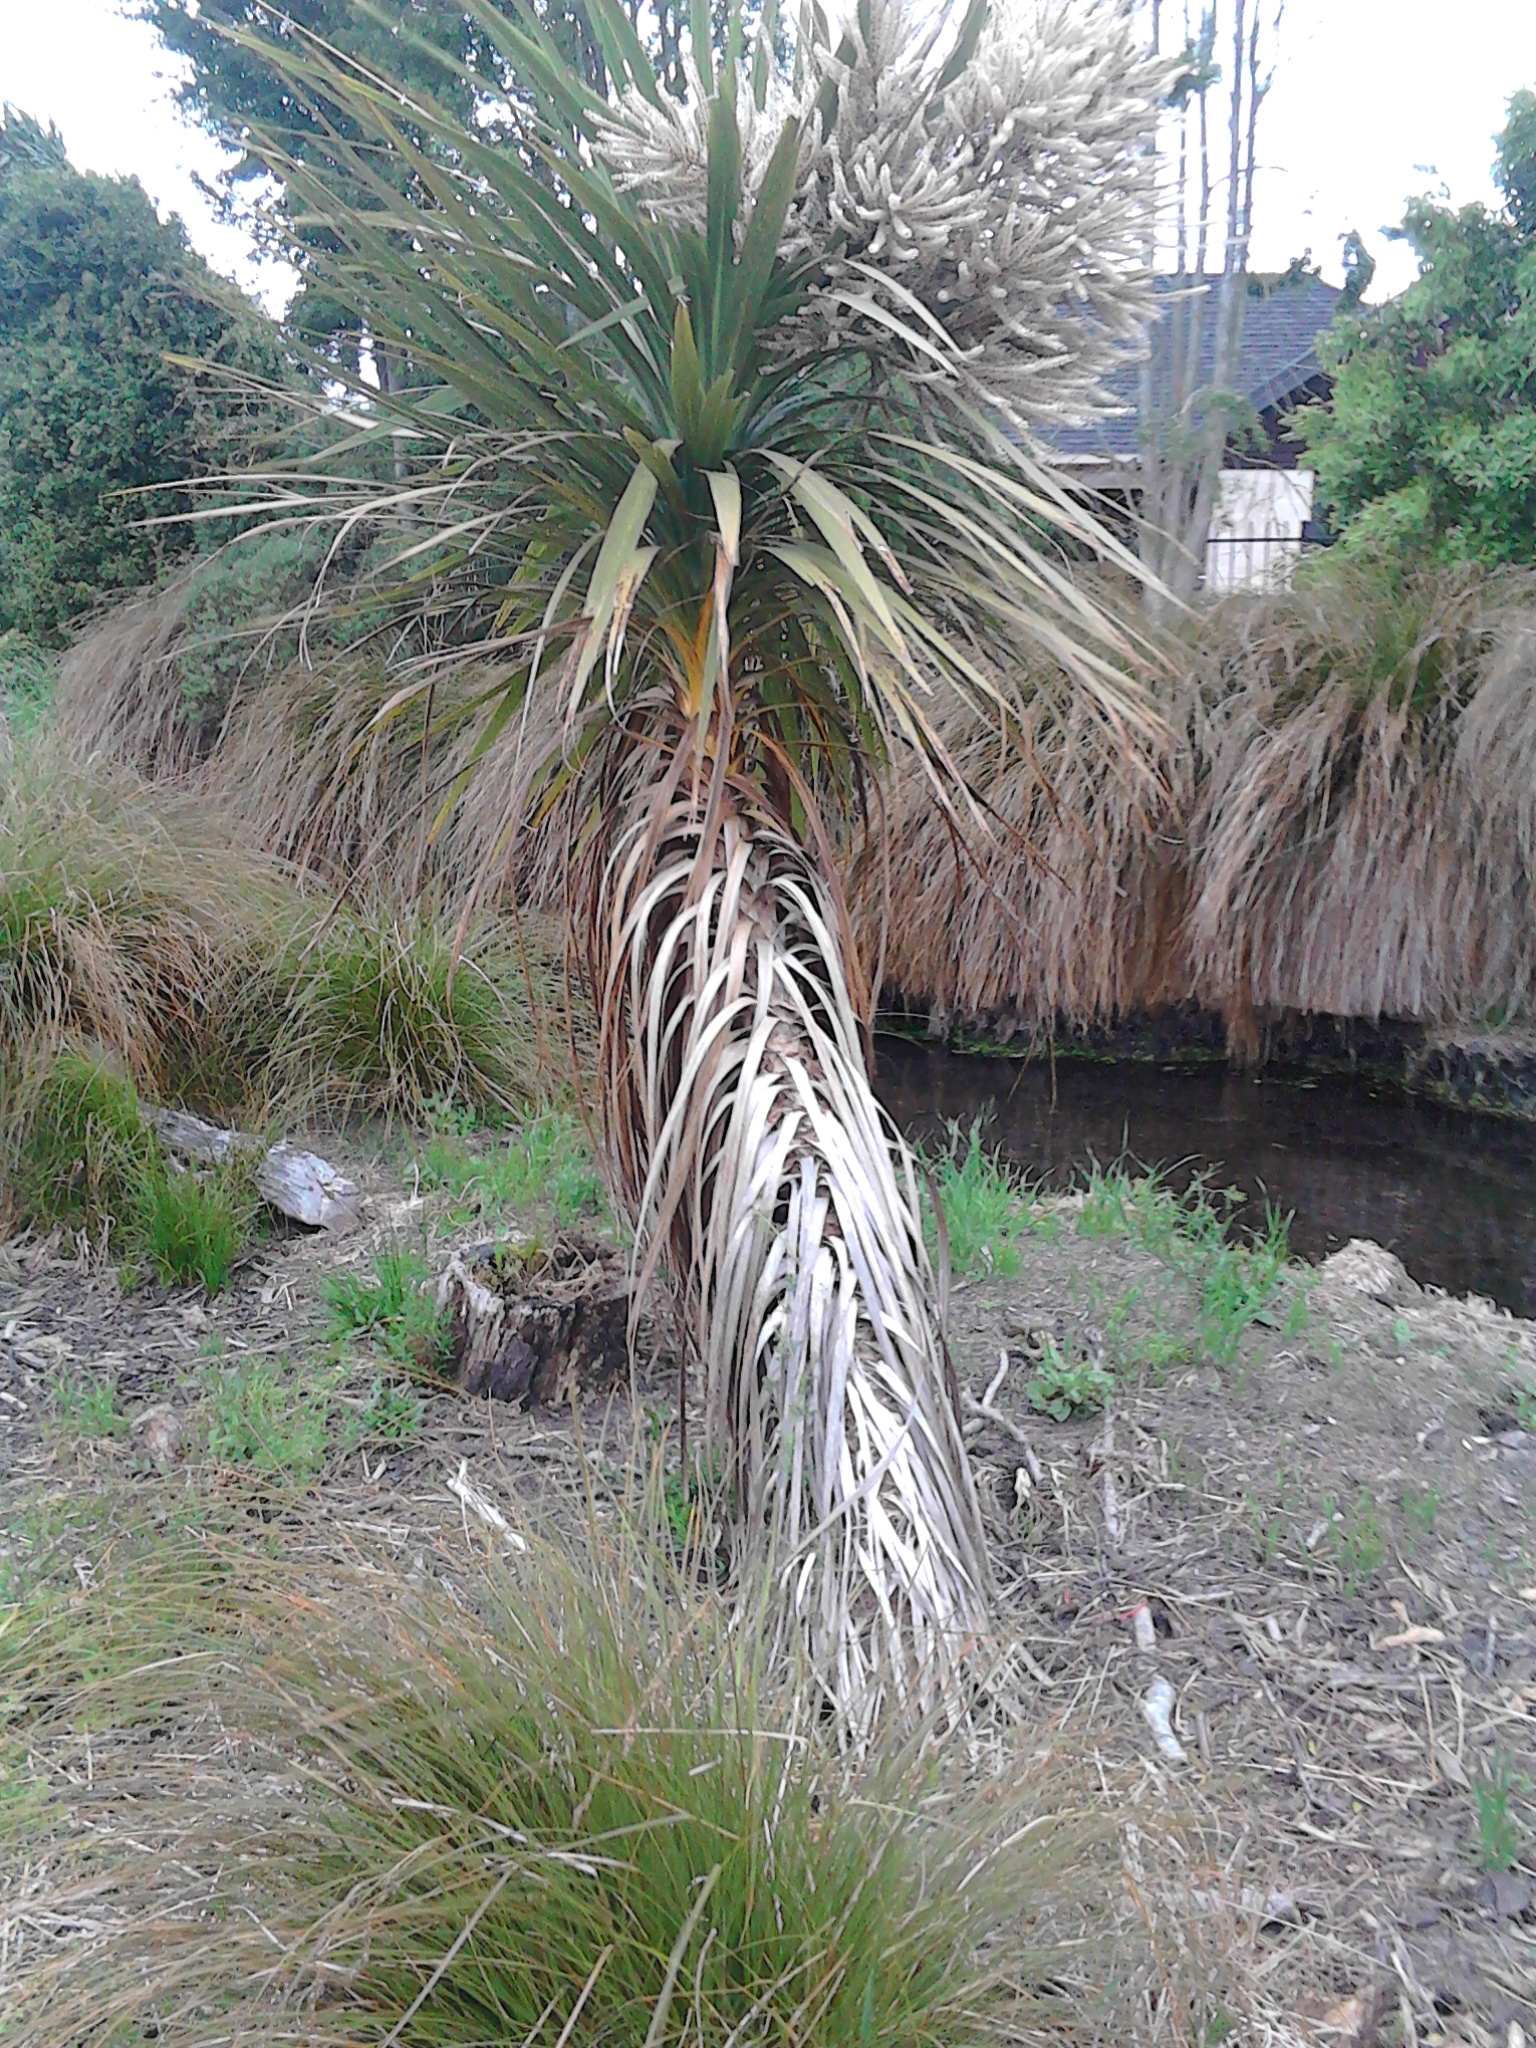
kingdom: Plantae
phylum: Tracheophyta
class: Liliopsida
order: Asparagales
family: Asparagaceae
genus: Cordyline
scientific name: Cordyline australis
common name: Cabbage-palm
